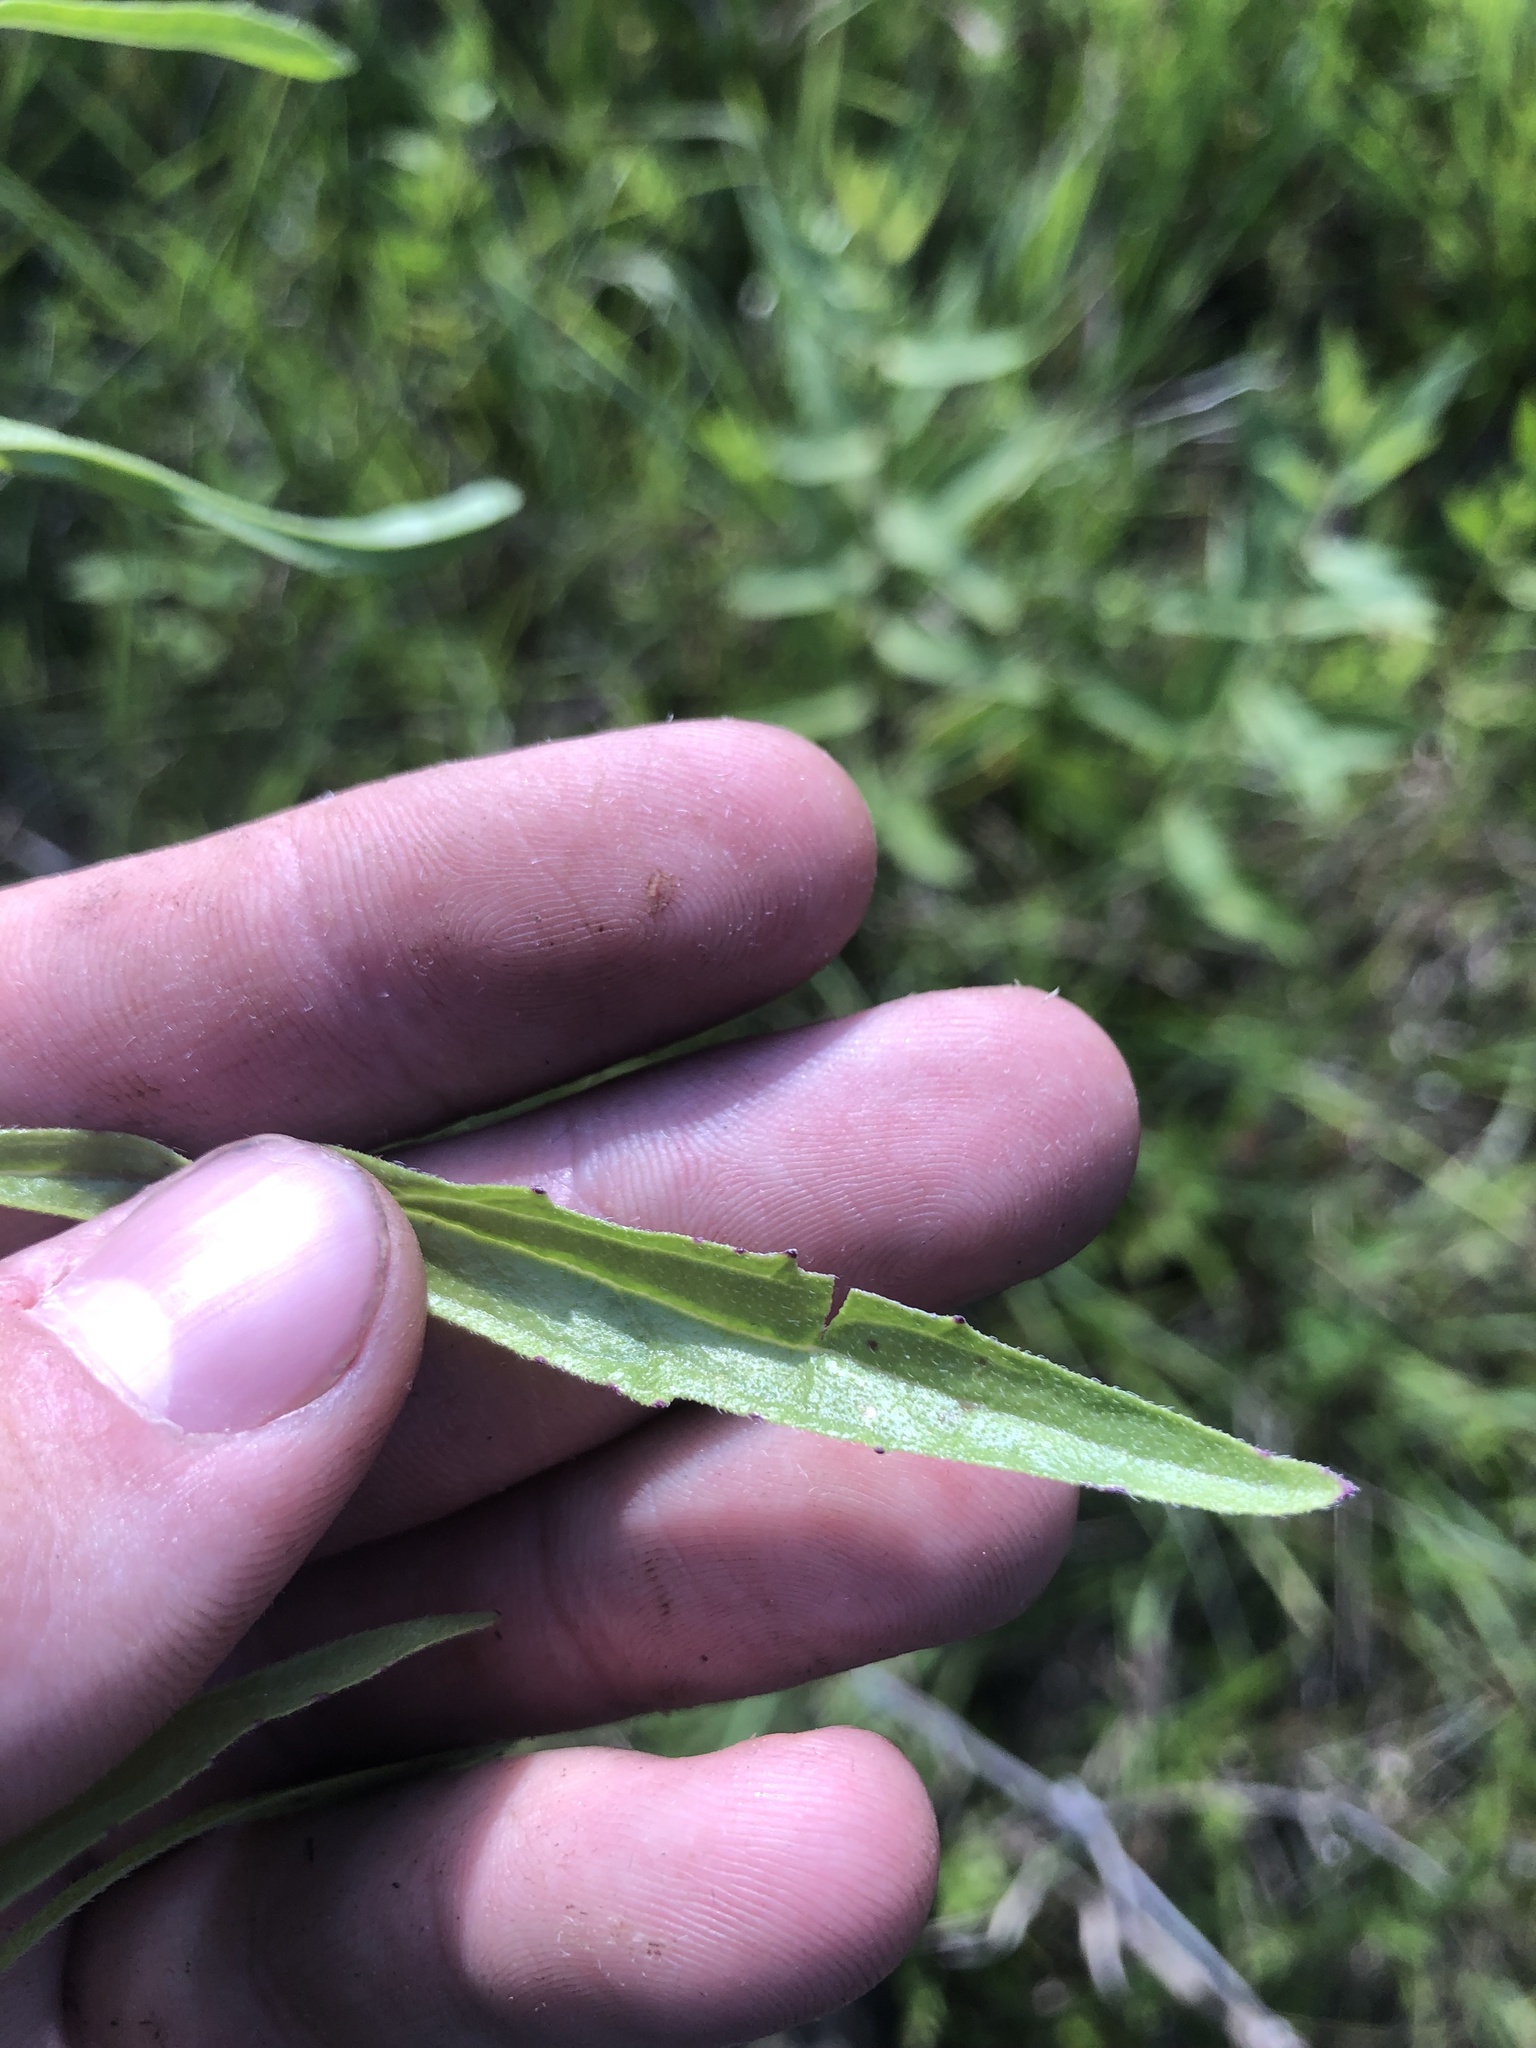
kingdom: Plantae
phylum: Tracheophyta
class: Magnoliopsida
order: Lamiales
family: Orobanchaceae
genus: Buchnera
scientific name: Buchnera floridana
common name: Florida bluehearts
